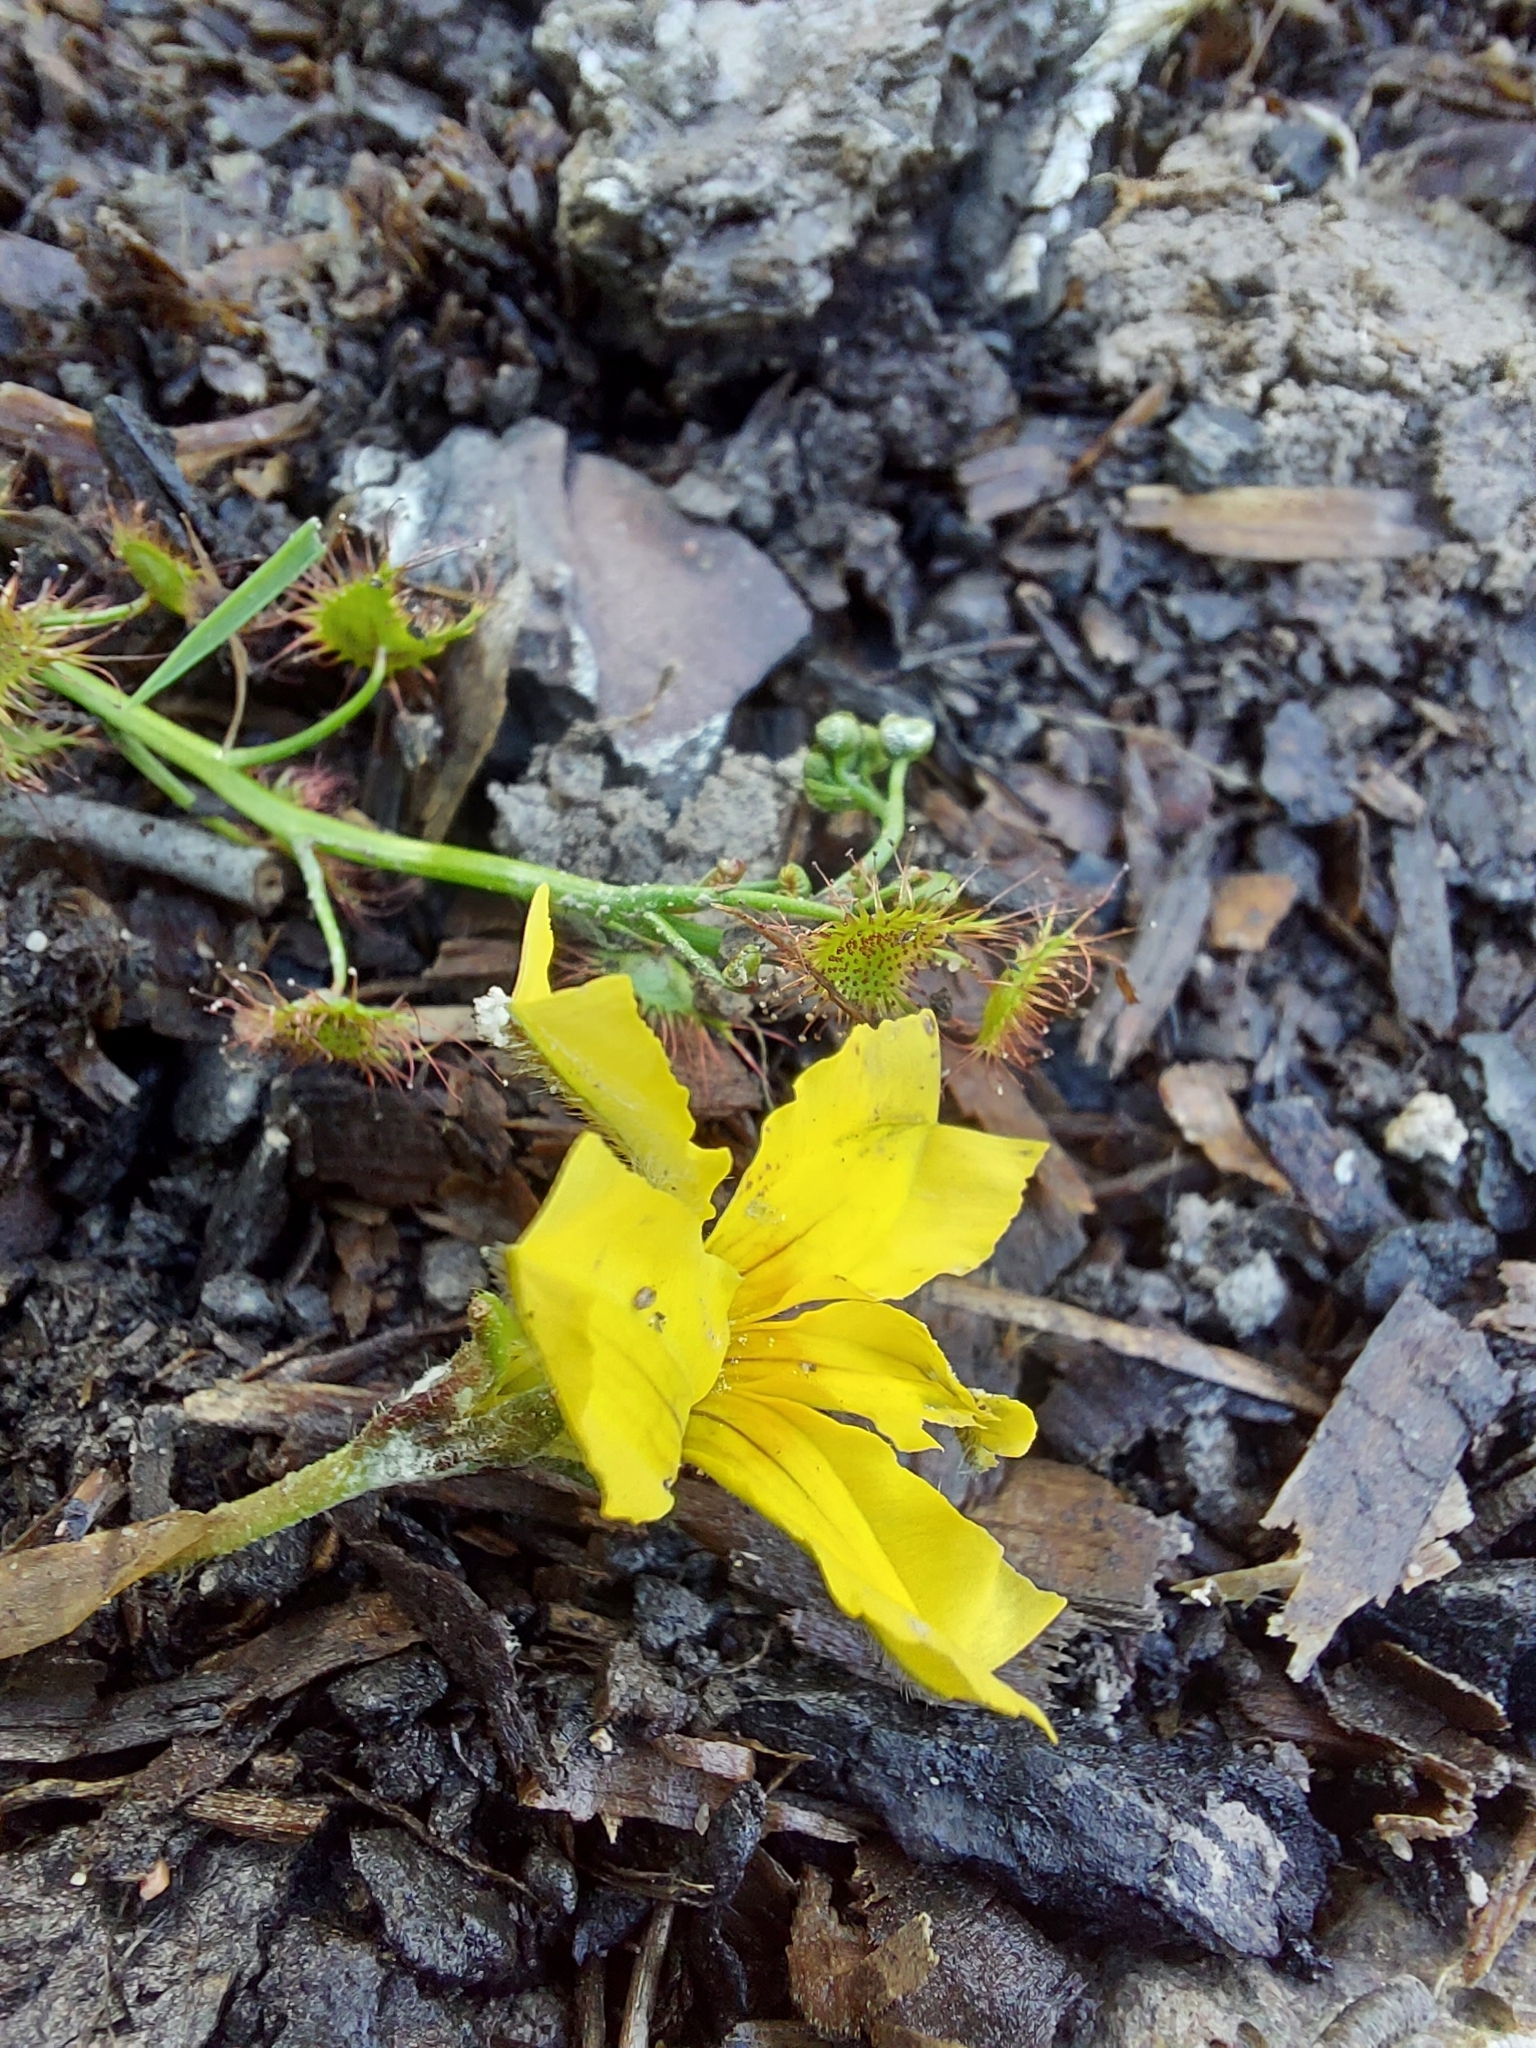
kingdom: Plantae
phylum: Tracheophyta
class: Magnoliopsida
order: Asterales
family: Goodeniaceae
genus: Goodenia
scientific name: Goodenia lanata
